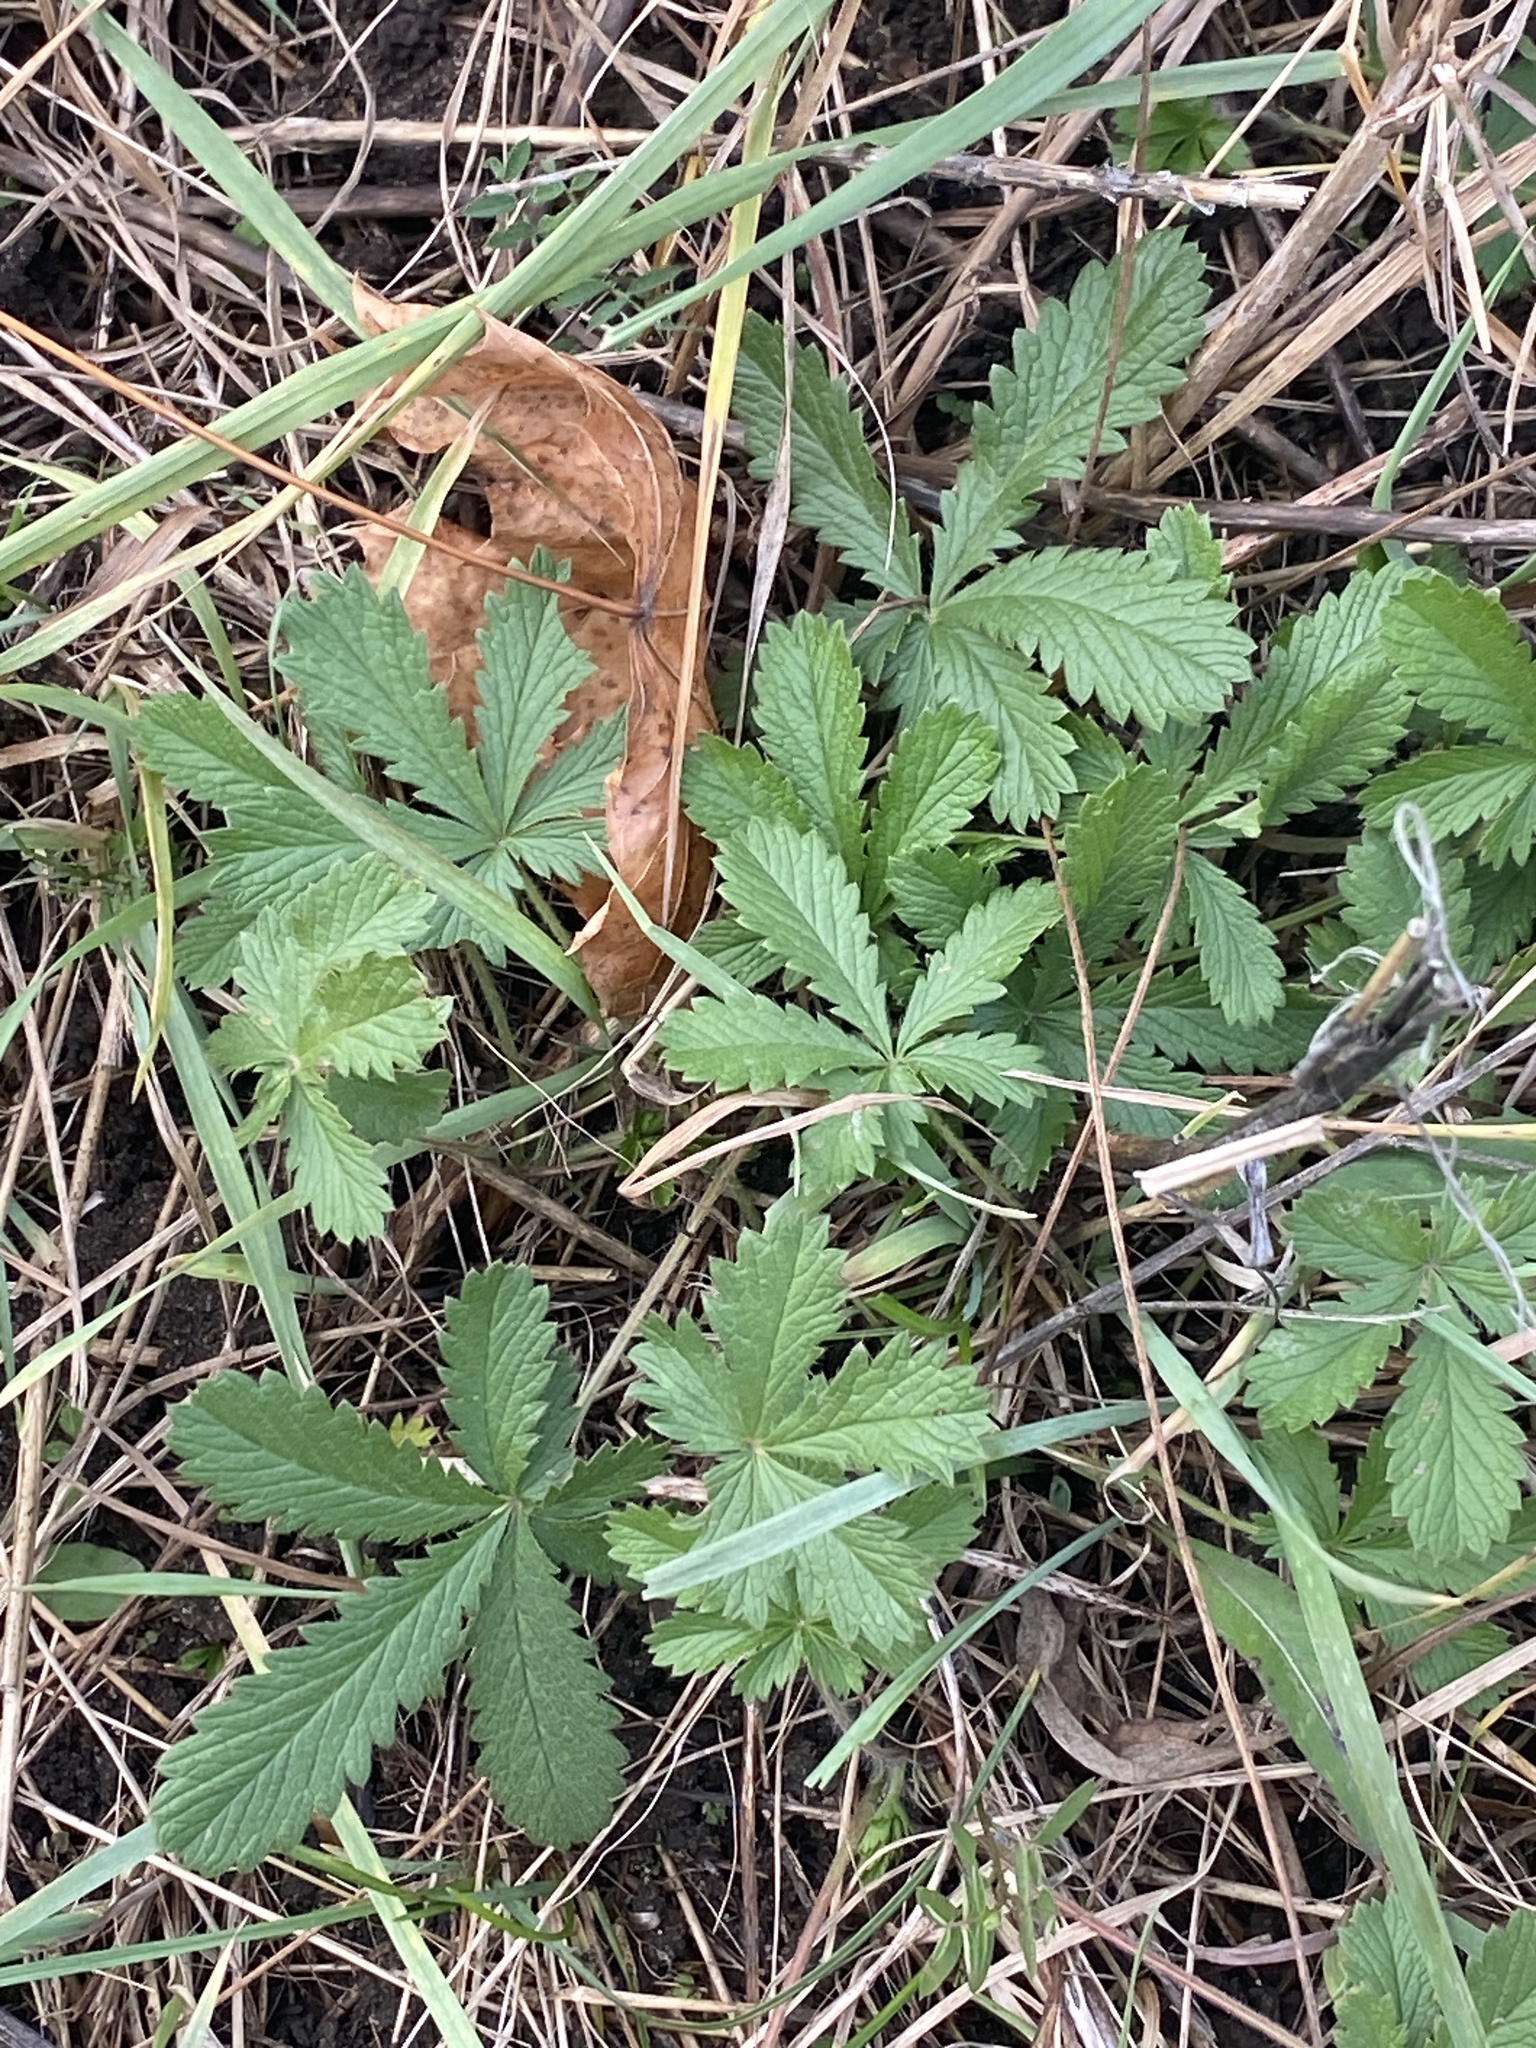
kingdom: Plantae
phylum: Tracheophyta
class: Magnoliopsida
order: Rosales
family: Rosaceae
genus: Potentilla
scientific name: Potentilla recta
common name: Sulphur cinquefoil
